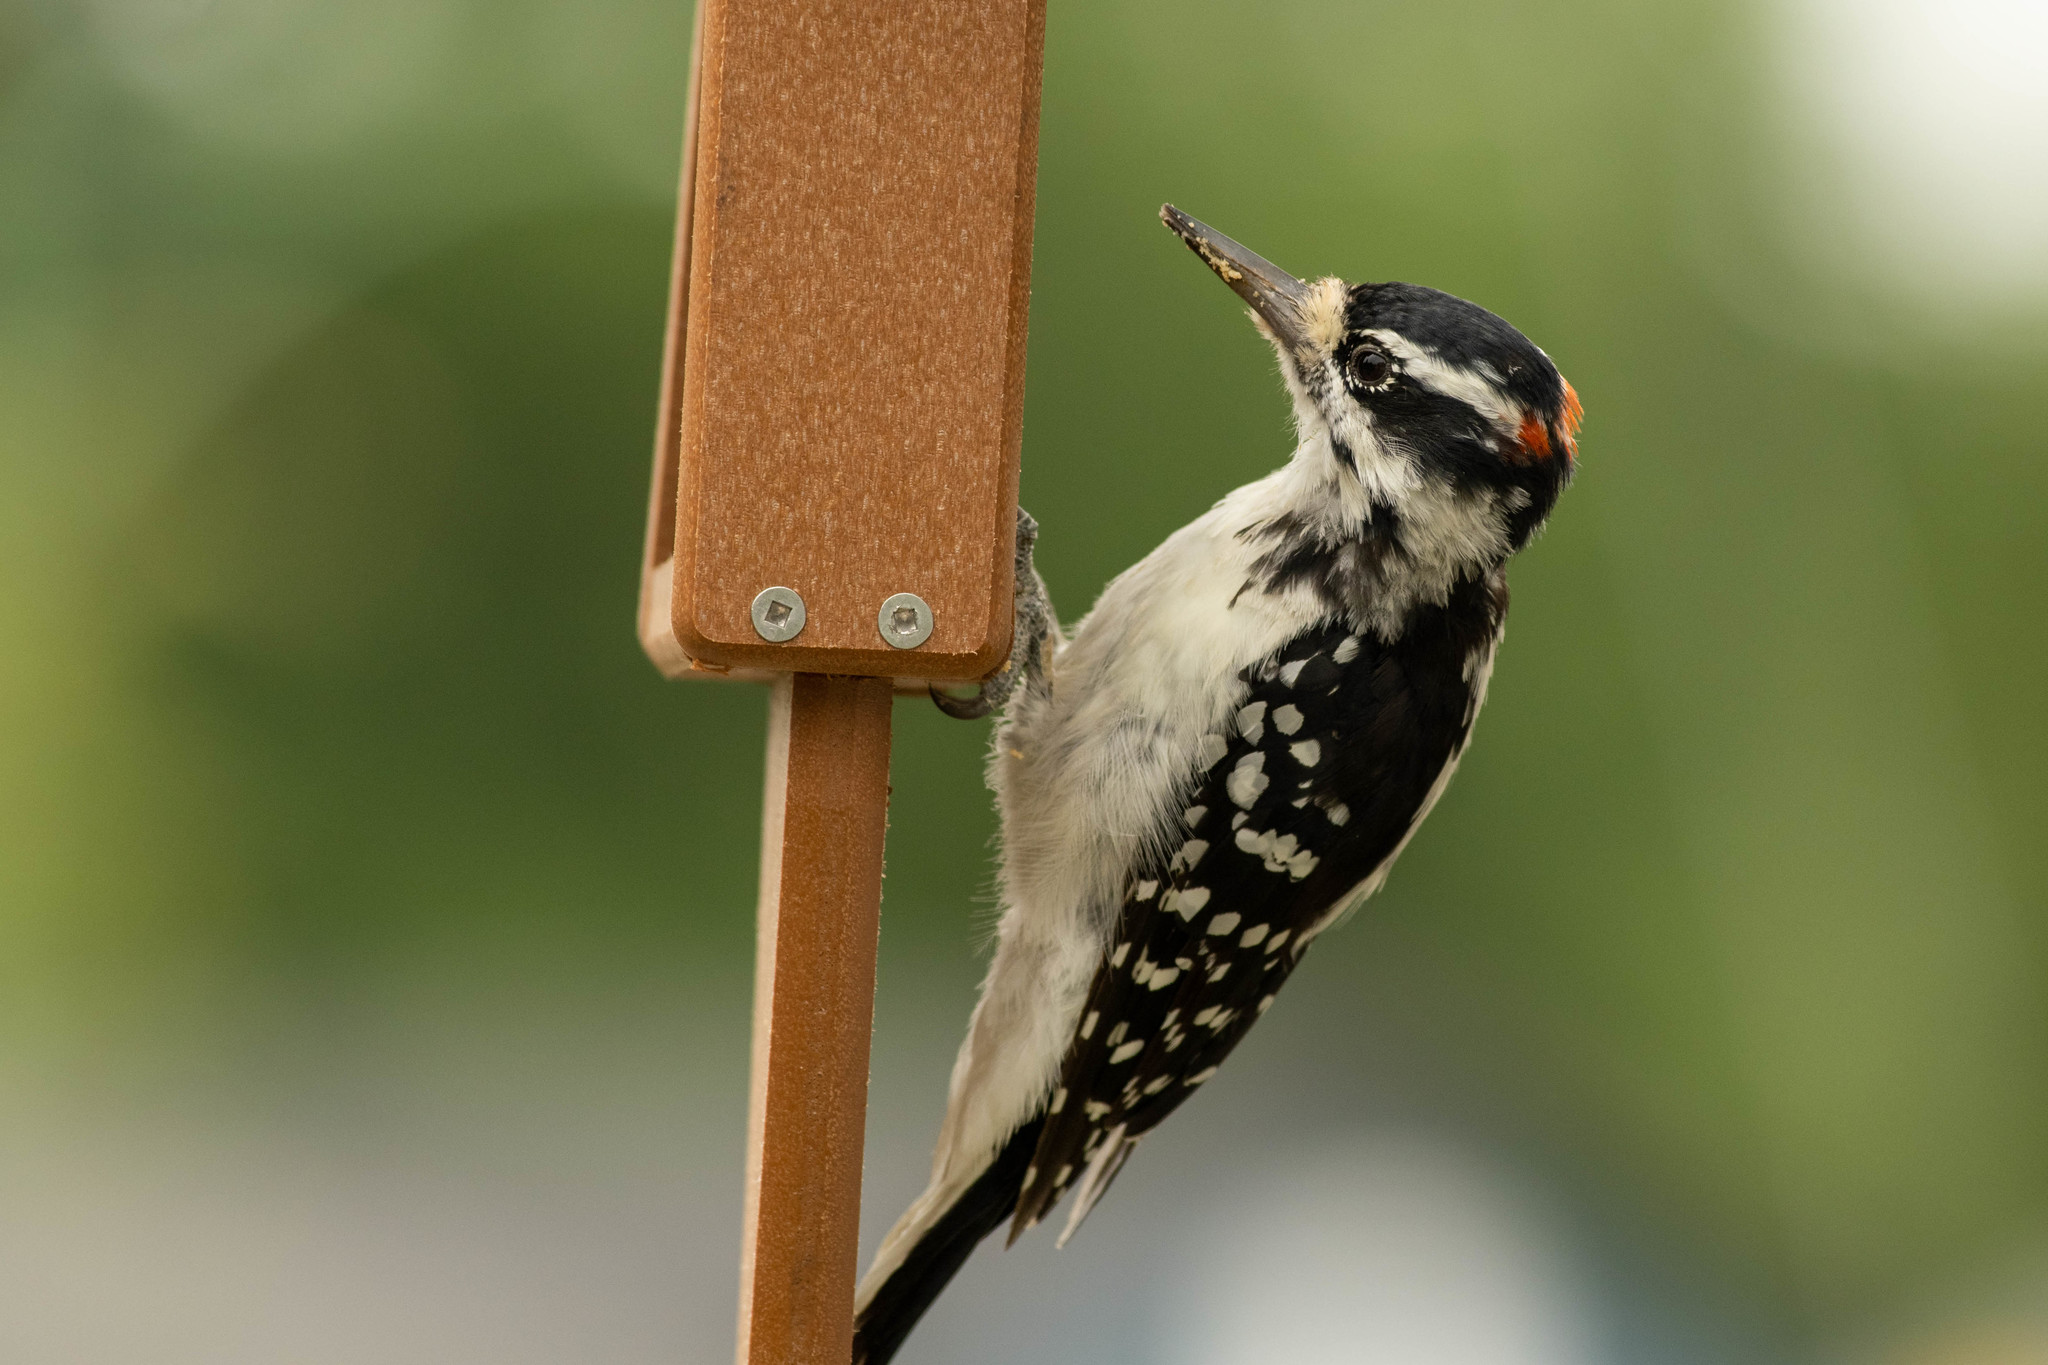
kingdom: Animalia
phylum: Chordata
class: Aves
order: Piciformes
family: Picidae
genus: Leuconotopicus
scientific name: Leuconotopicus villosus
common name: Hairy woodpecker
